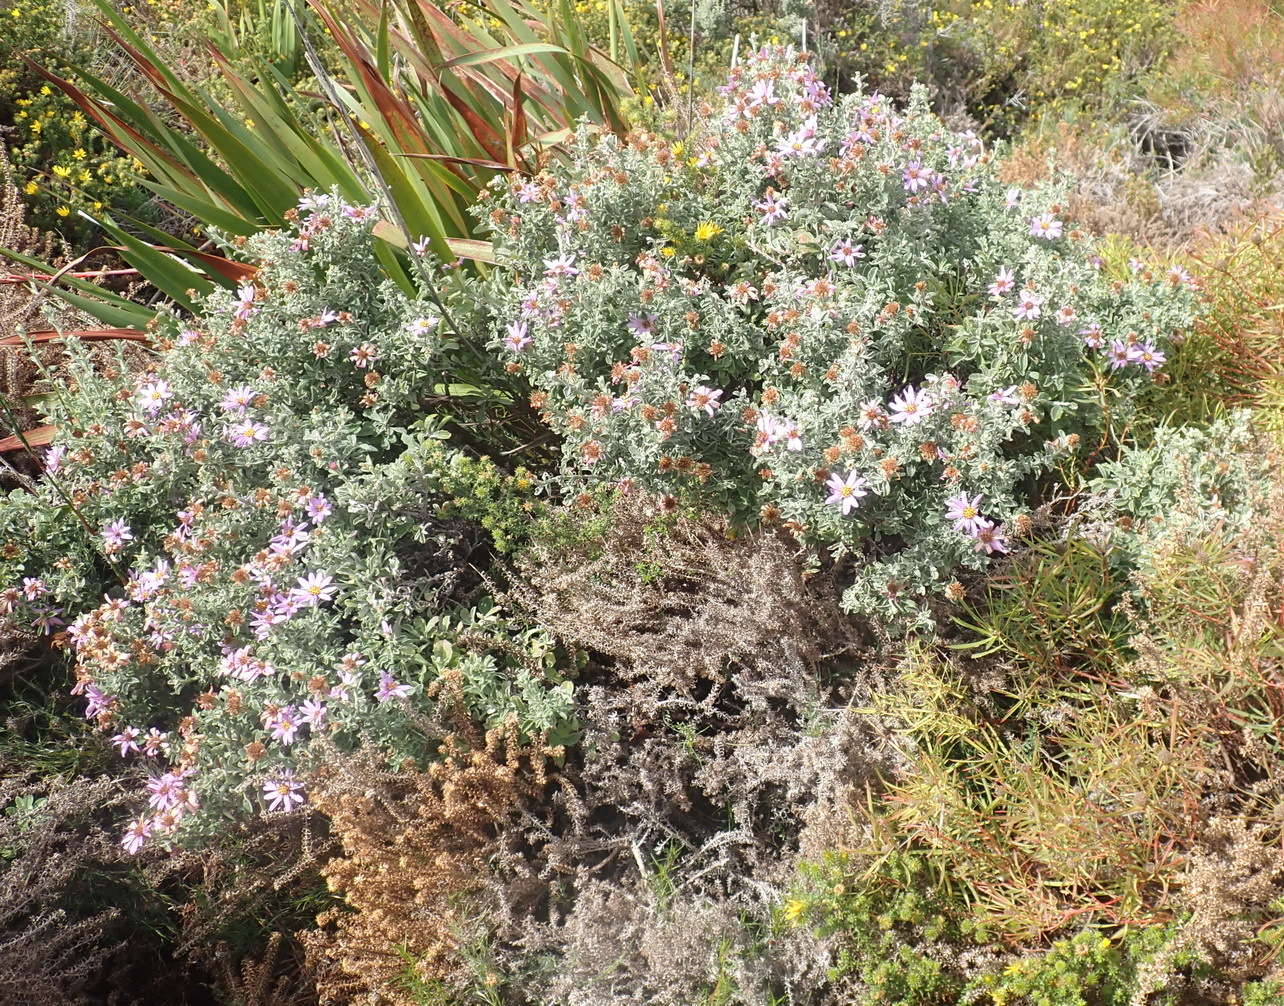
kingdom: Plantae
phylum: Tracheophyta
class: Magnoliopsida
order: Asterales
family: Asteraceae
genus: Printzia
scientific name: Printzia polifolia
